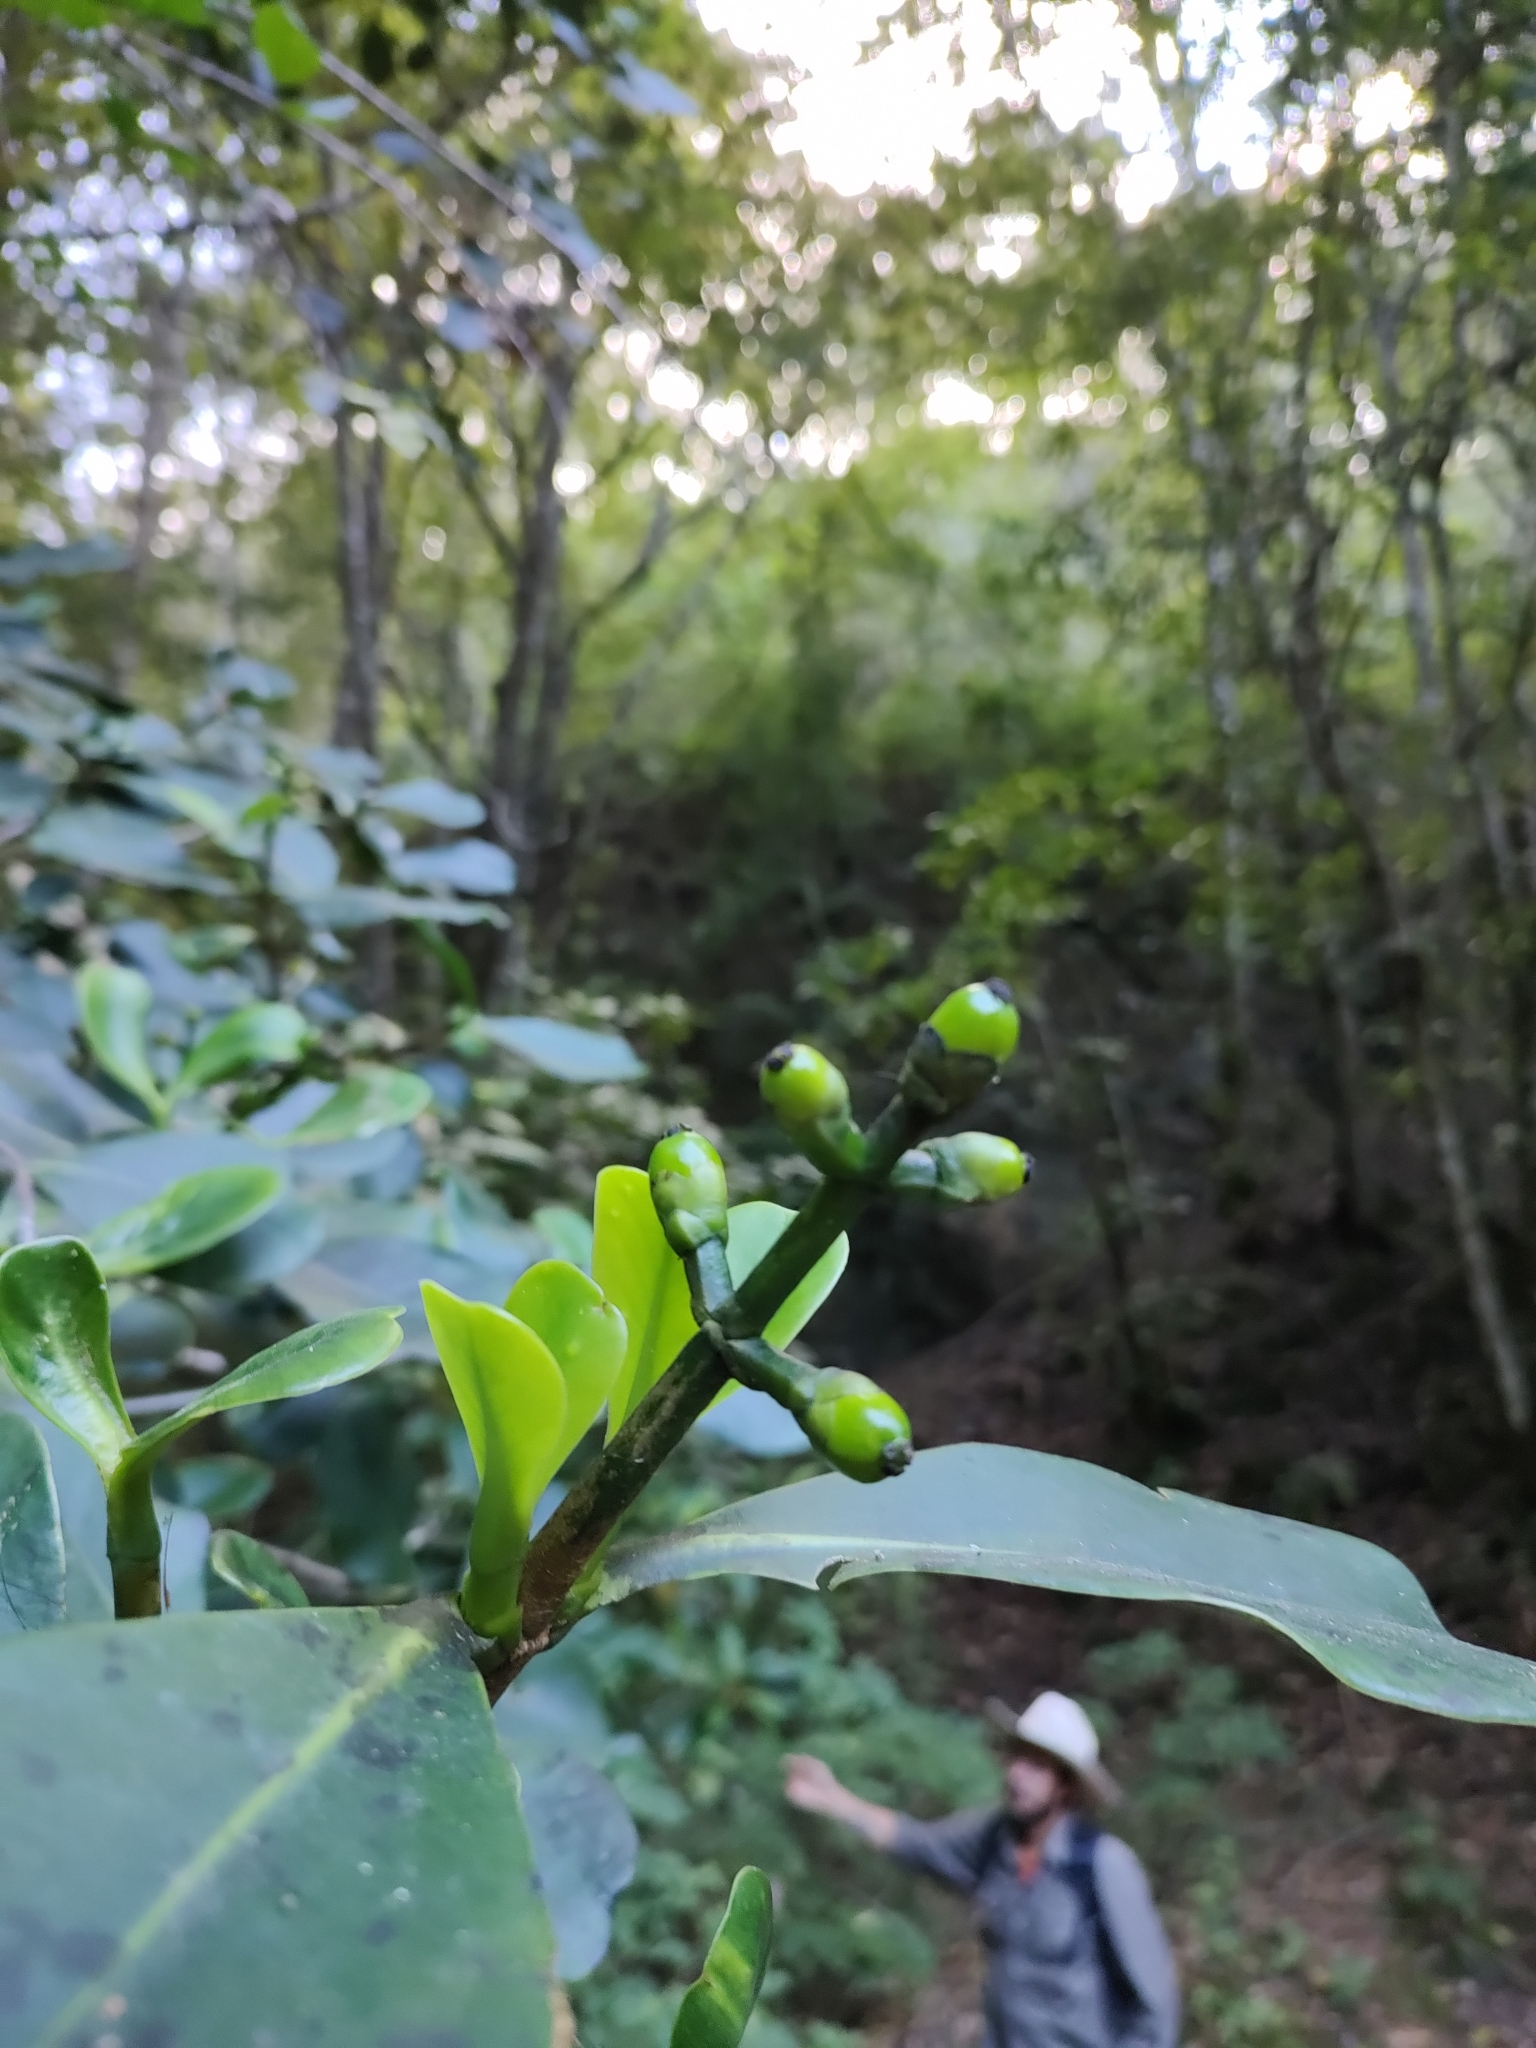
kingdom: Plantae
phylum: Tracheophyta
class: Magnoliopsida
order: Malpighiales
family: Clusiaceae
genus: Clusia
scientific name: Clusia salvinii
